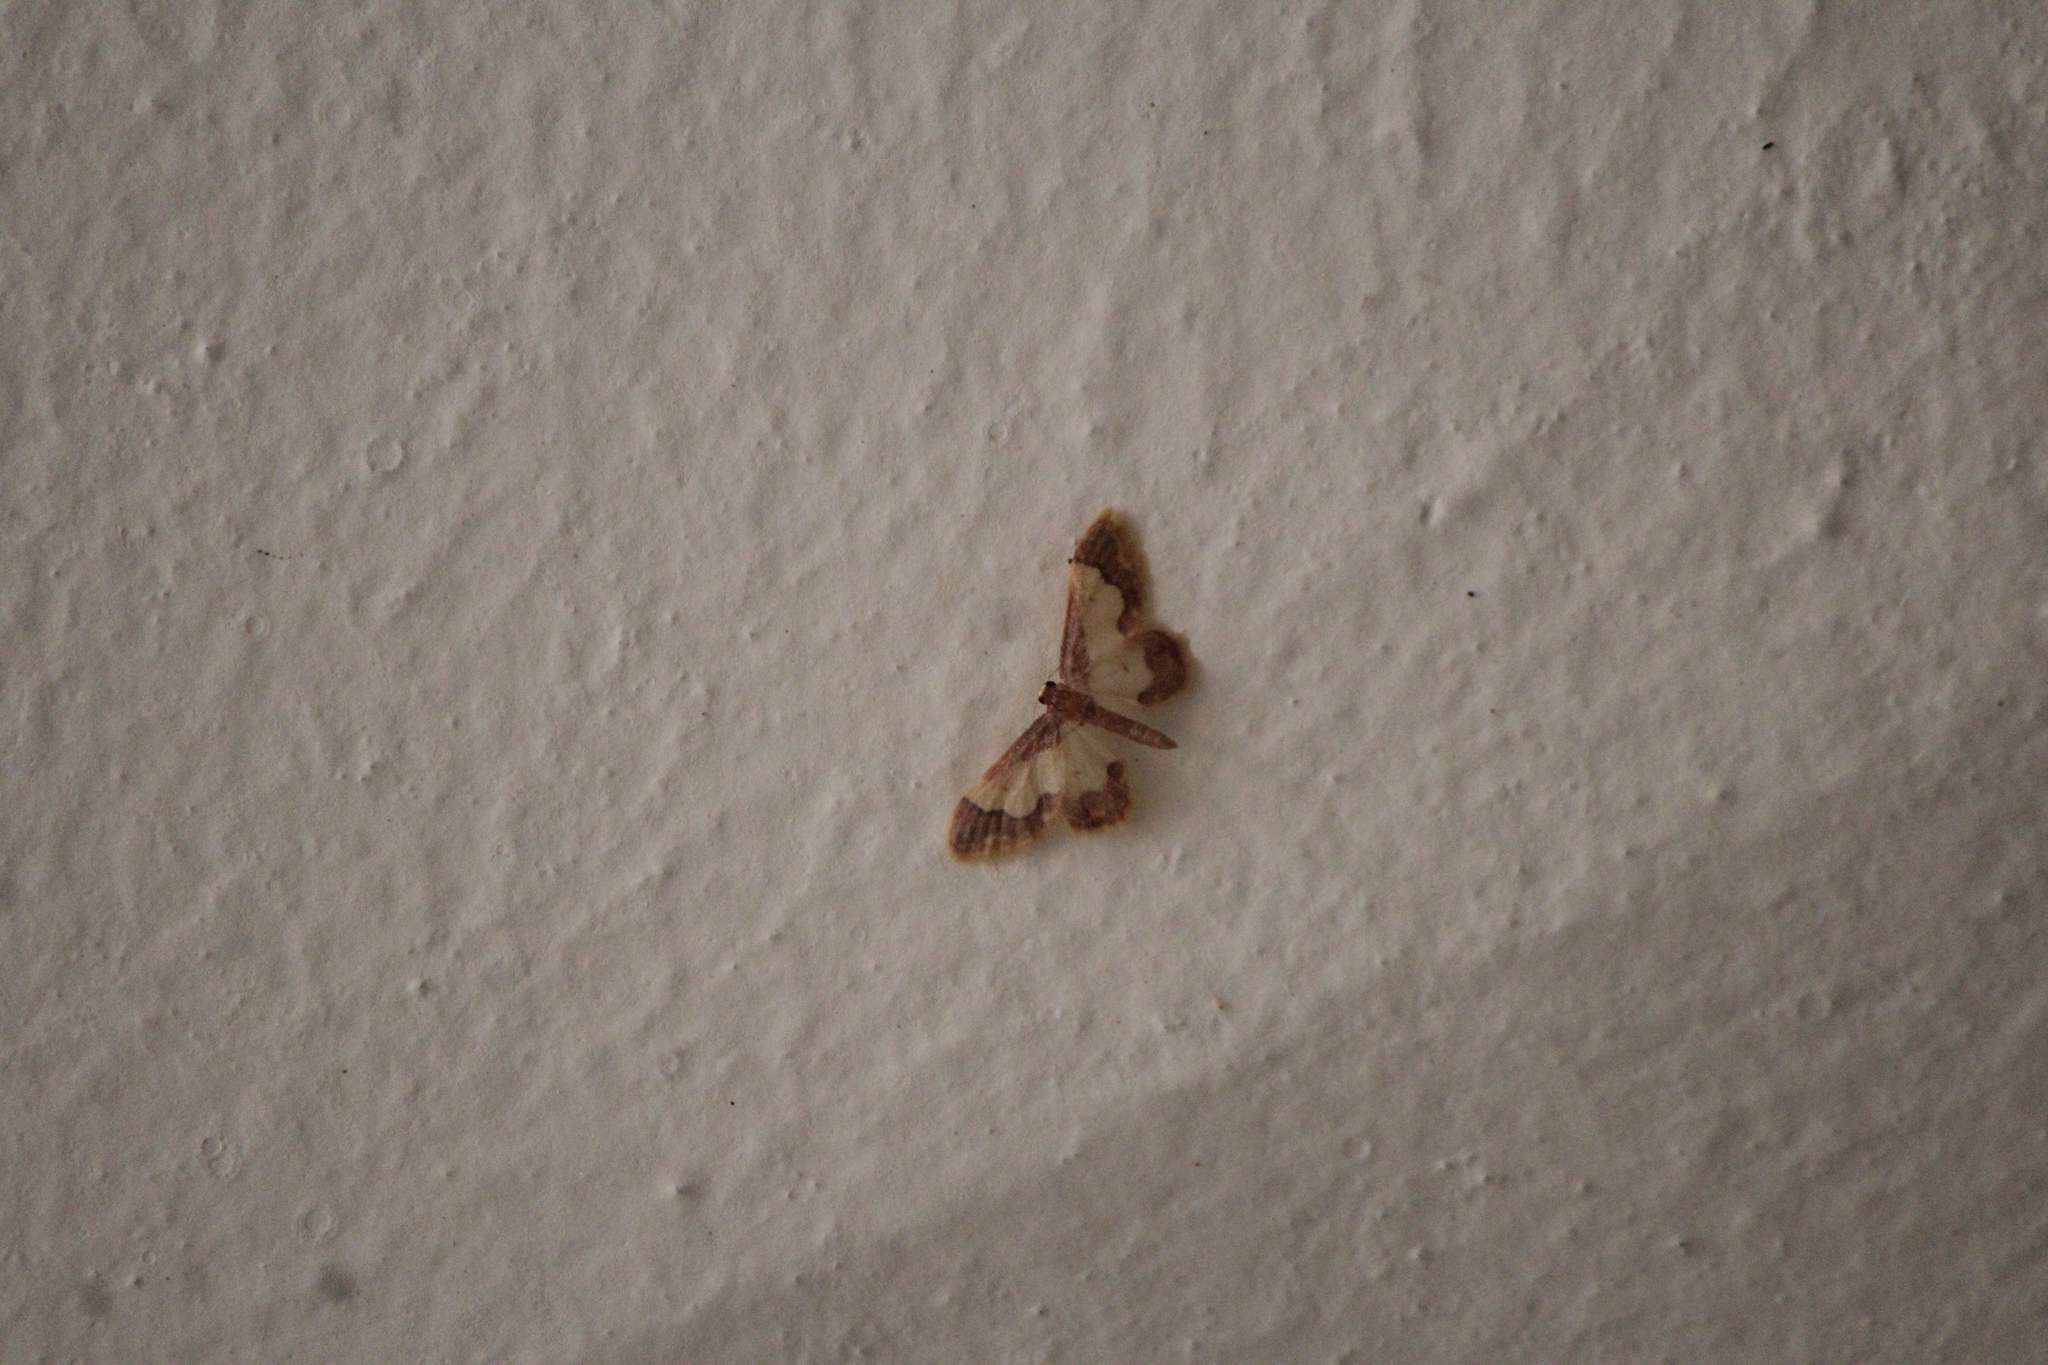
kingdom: Animalia
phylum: Arthropoda
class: Insecta
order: Lepidoptera
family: Geometridae
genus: Idaea
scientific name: Idaea basinta
